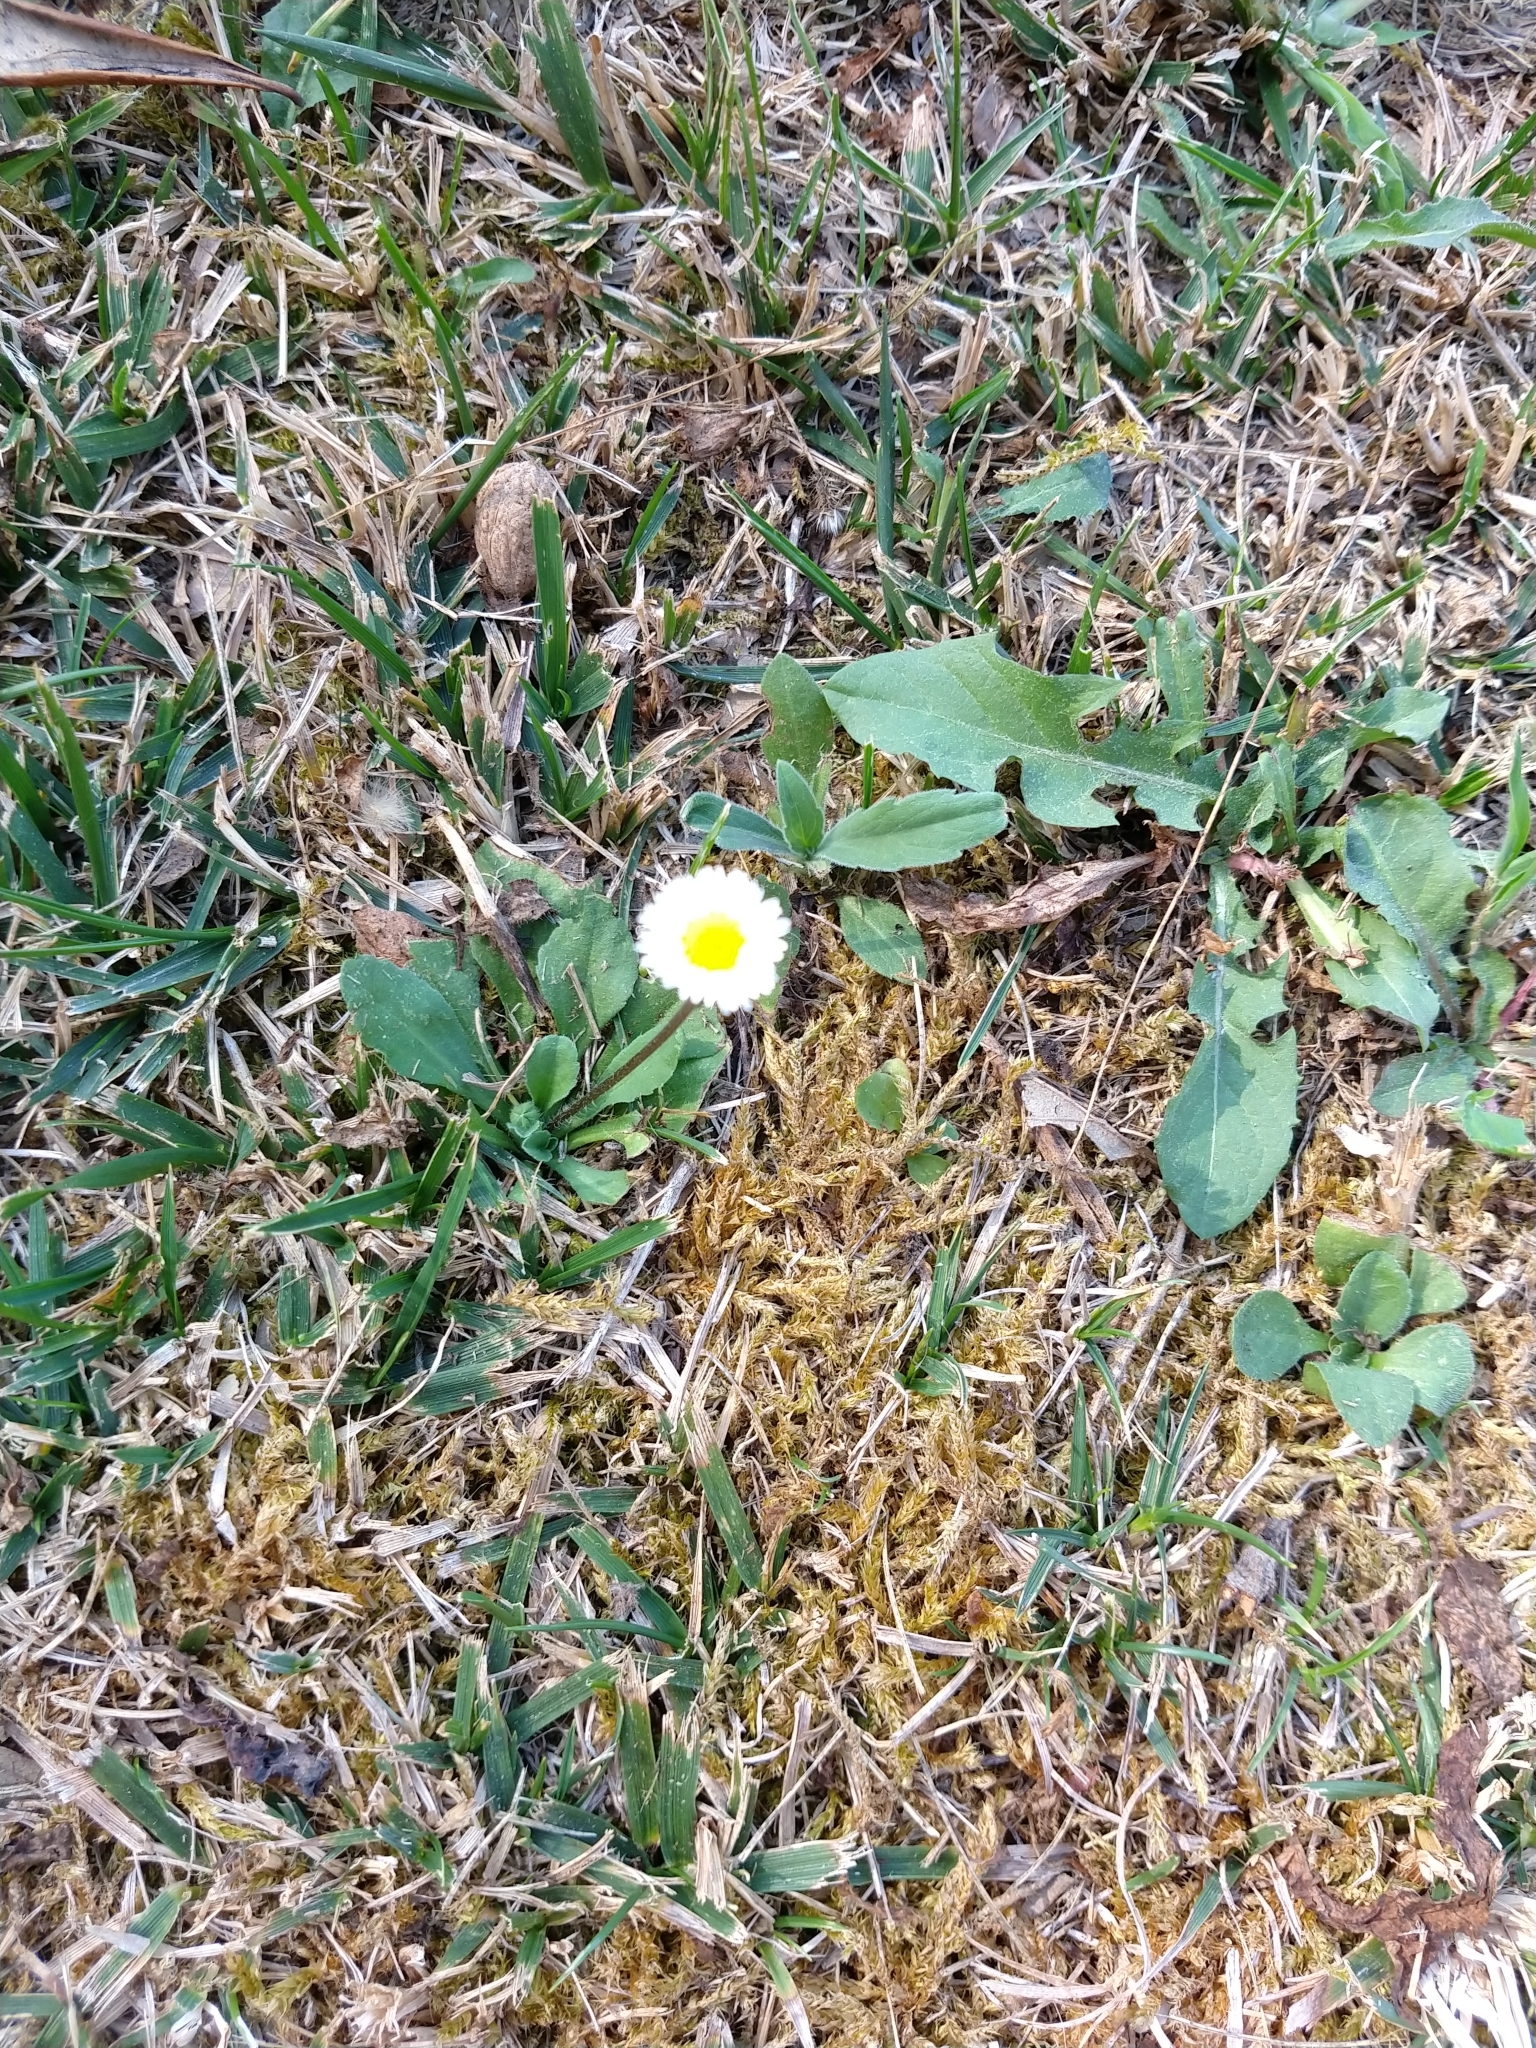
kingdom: Plantae
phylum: Tracheophyta
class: Magnoliopsida
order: Asterales
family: Asteraceae
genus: Bellis
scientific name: Bellis perennis
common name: Lawndaisy
